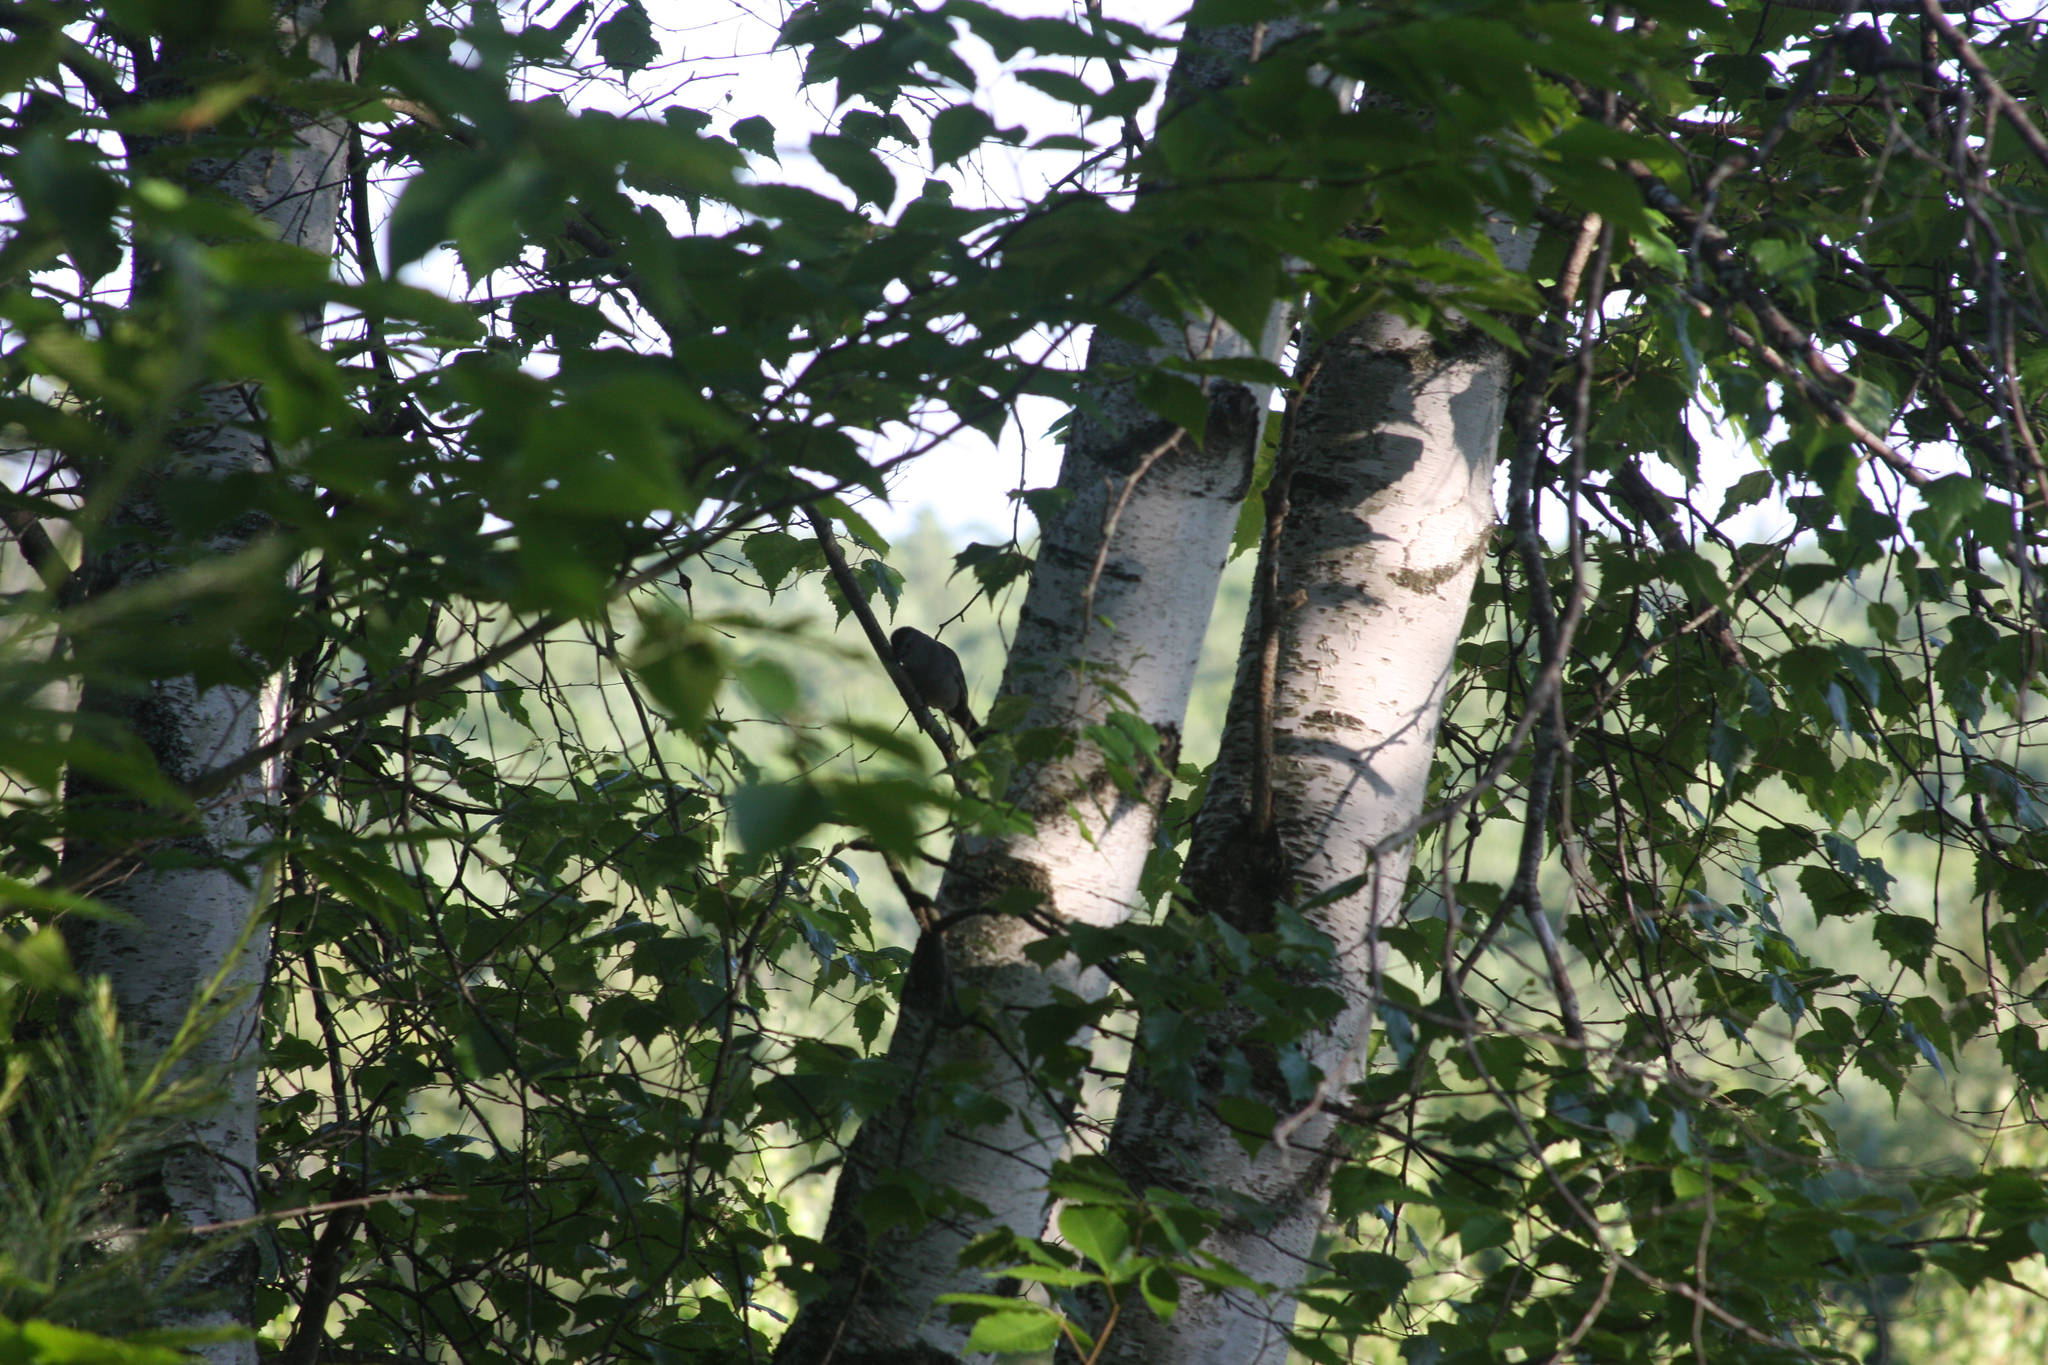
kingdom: Animalia
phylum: Chordata
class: Aves
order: Passeriformes
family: Mimidae
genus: Dumetella
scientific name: Dumetella carolinensis
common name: Gray catbird
